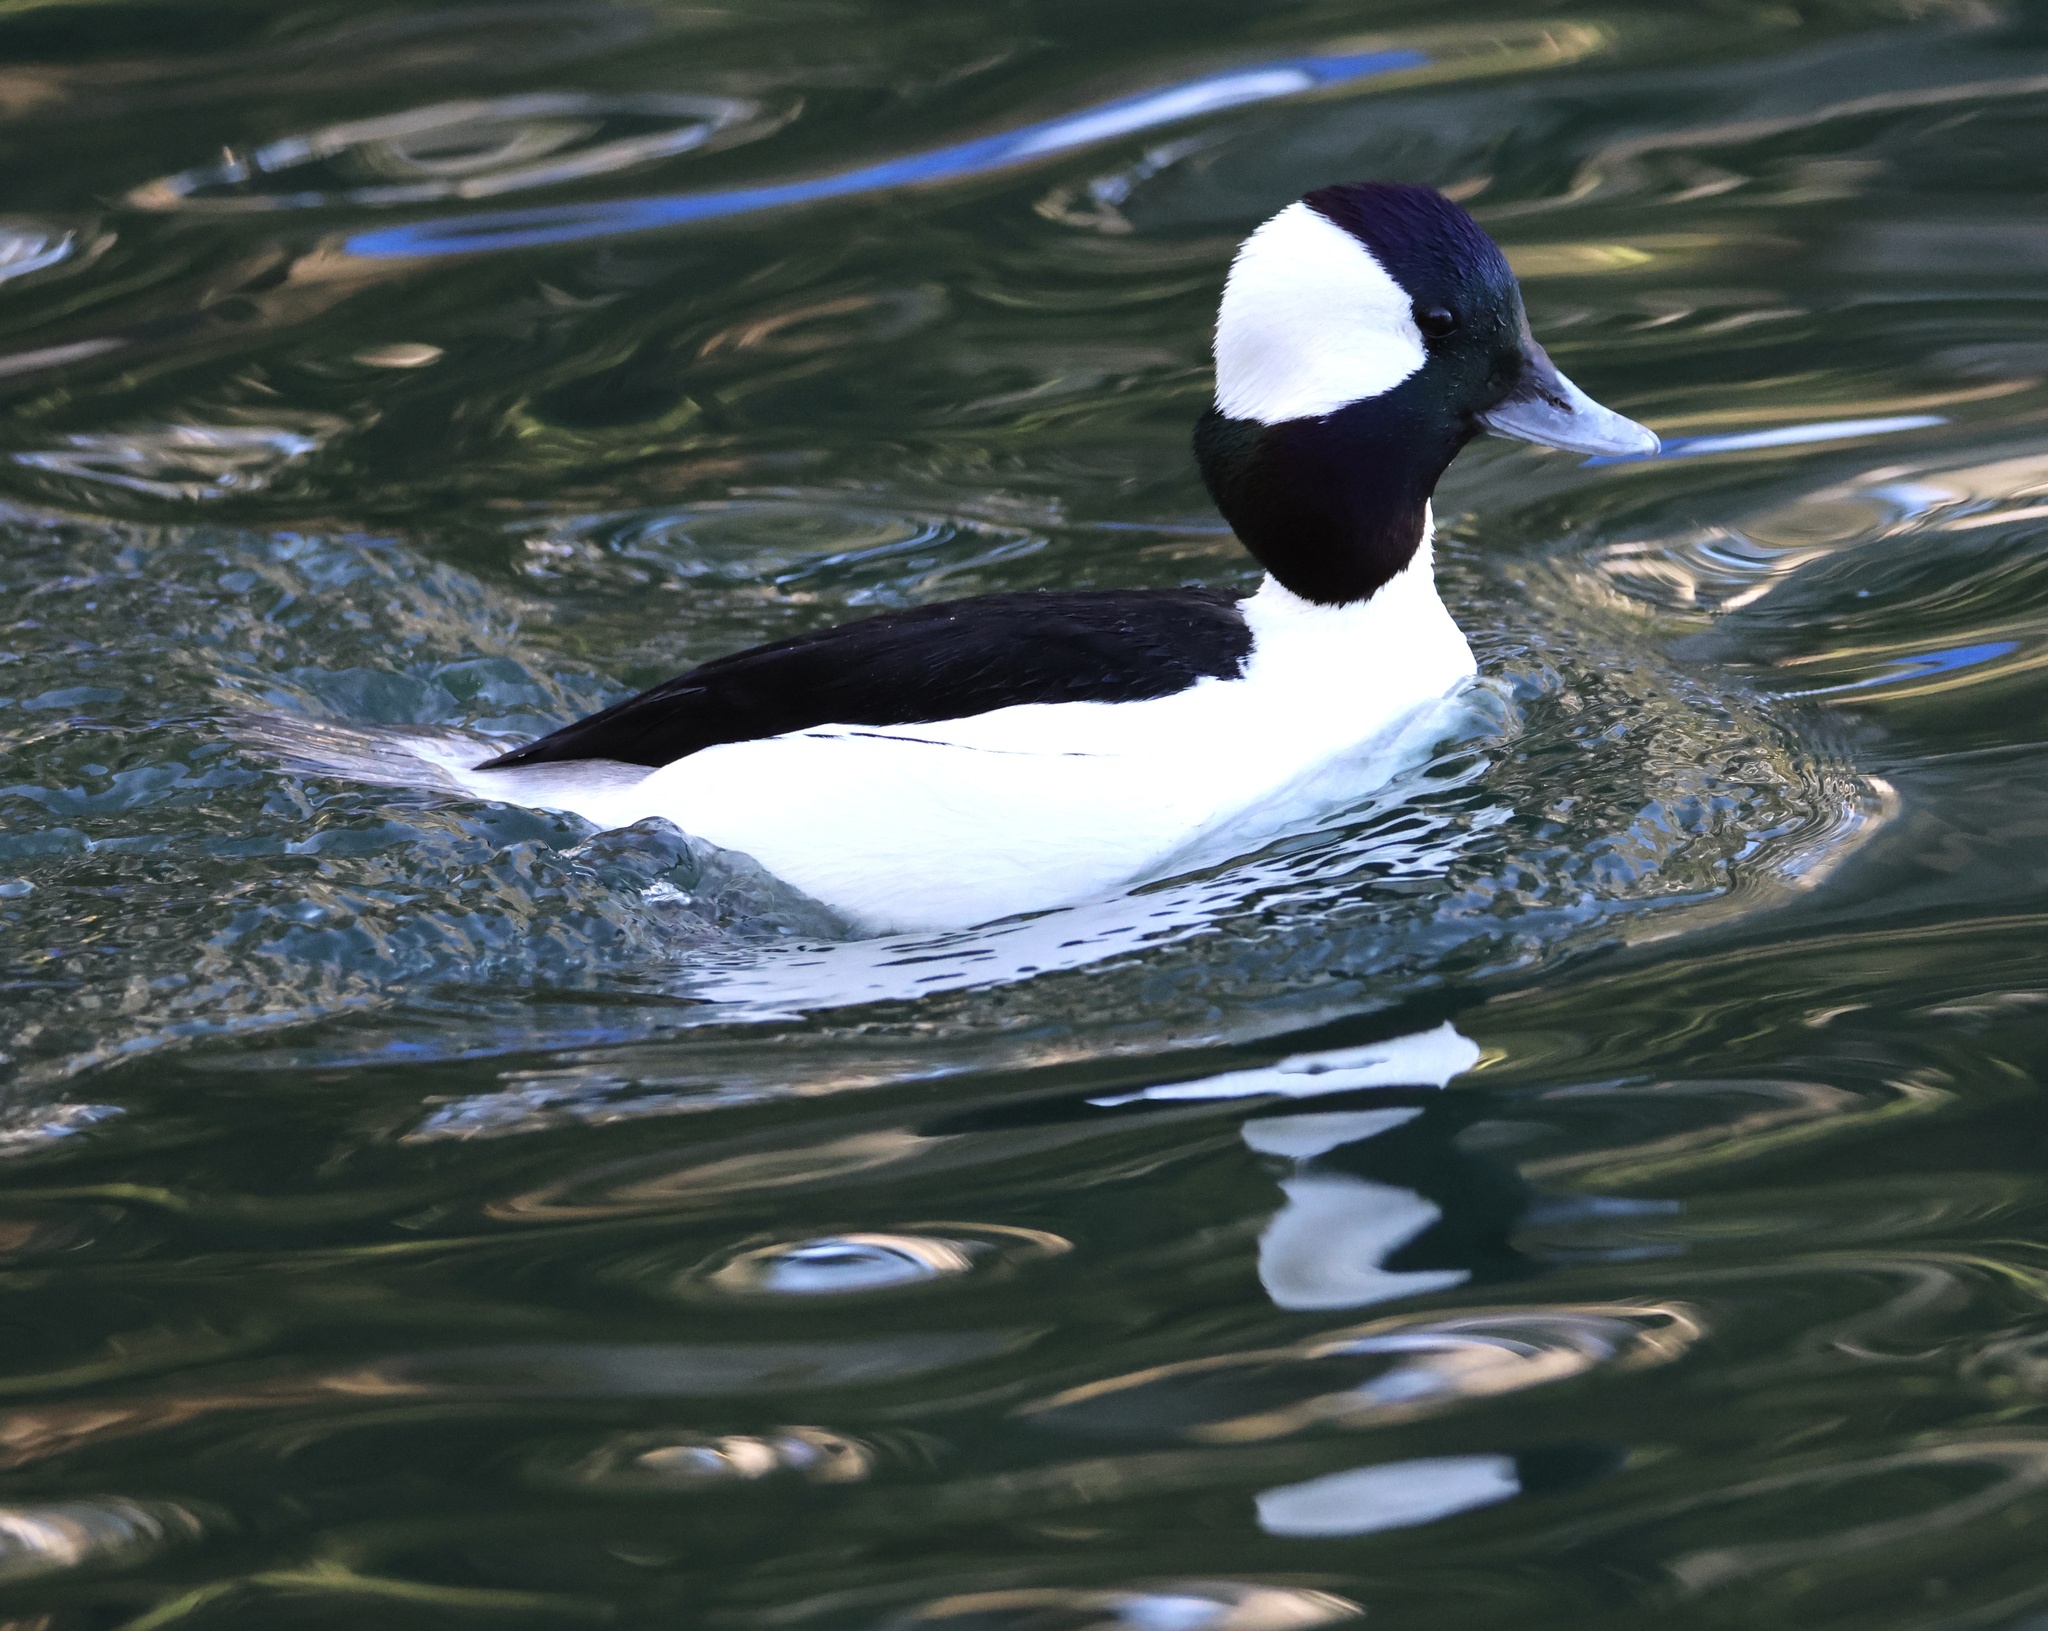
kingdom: Animalia
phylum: Chordata
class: Aves
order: Anseriformes
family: Anatidae
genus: Bucephala
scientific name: Bucephala albeola
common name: Bufflehead
